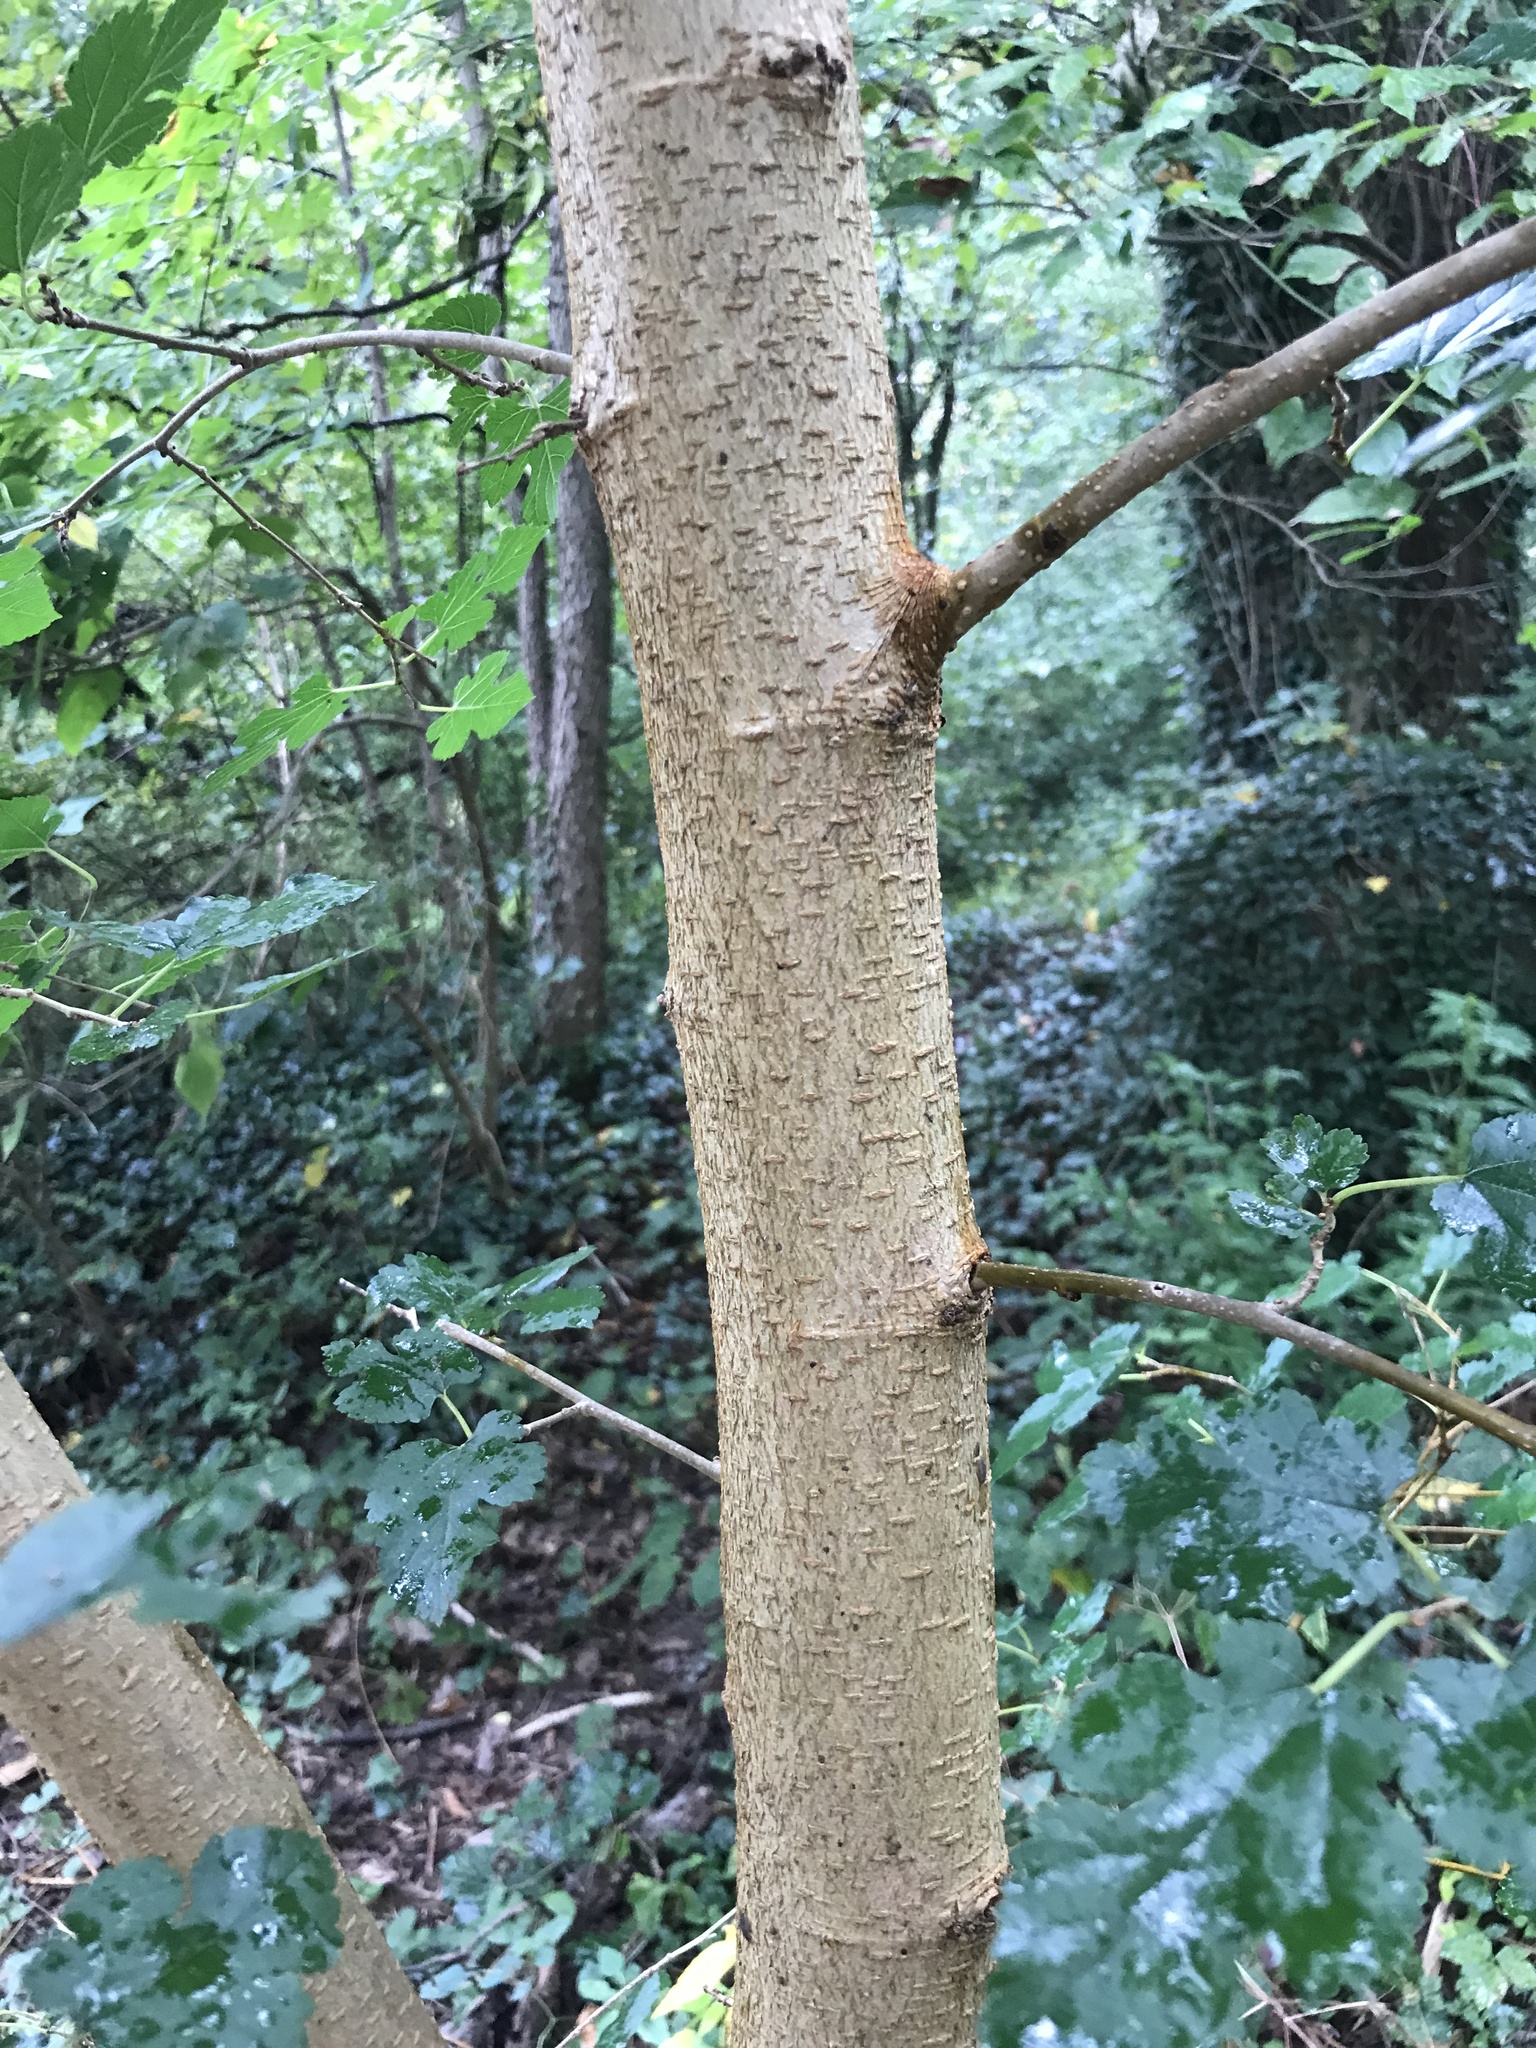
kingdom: Plantae
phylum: Tracheophyta
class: Magnoliopsida
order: Rosales
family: Moraceae
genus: Morus
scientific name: Morus alba
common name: White mulberry
